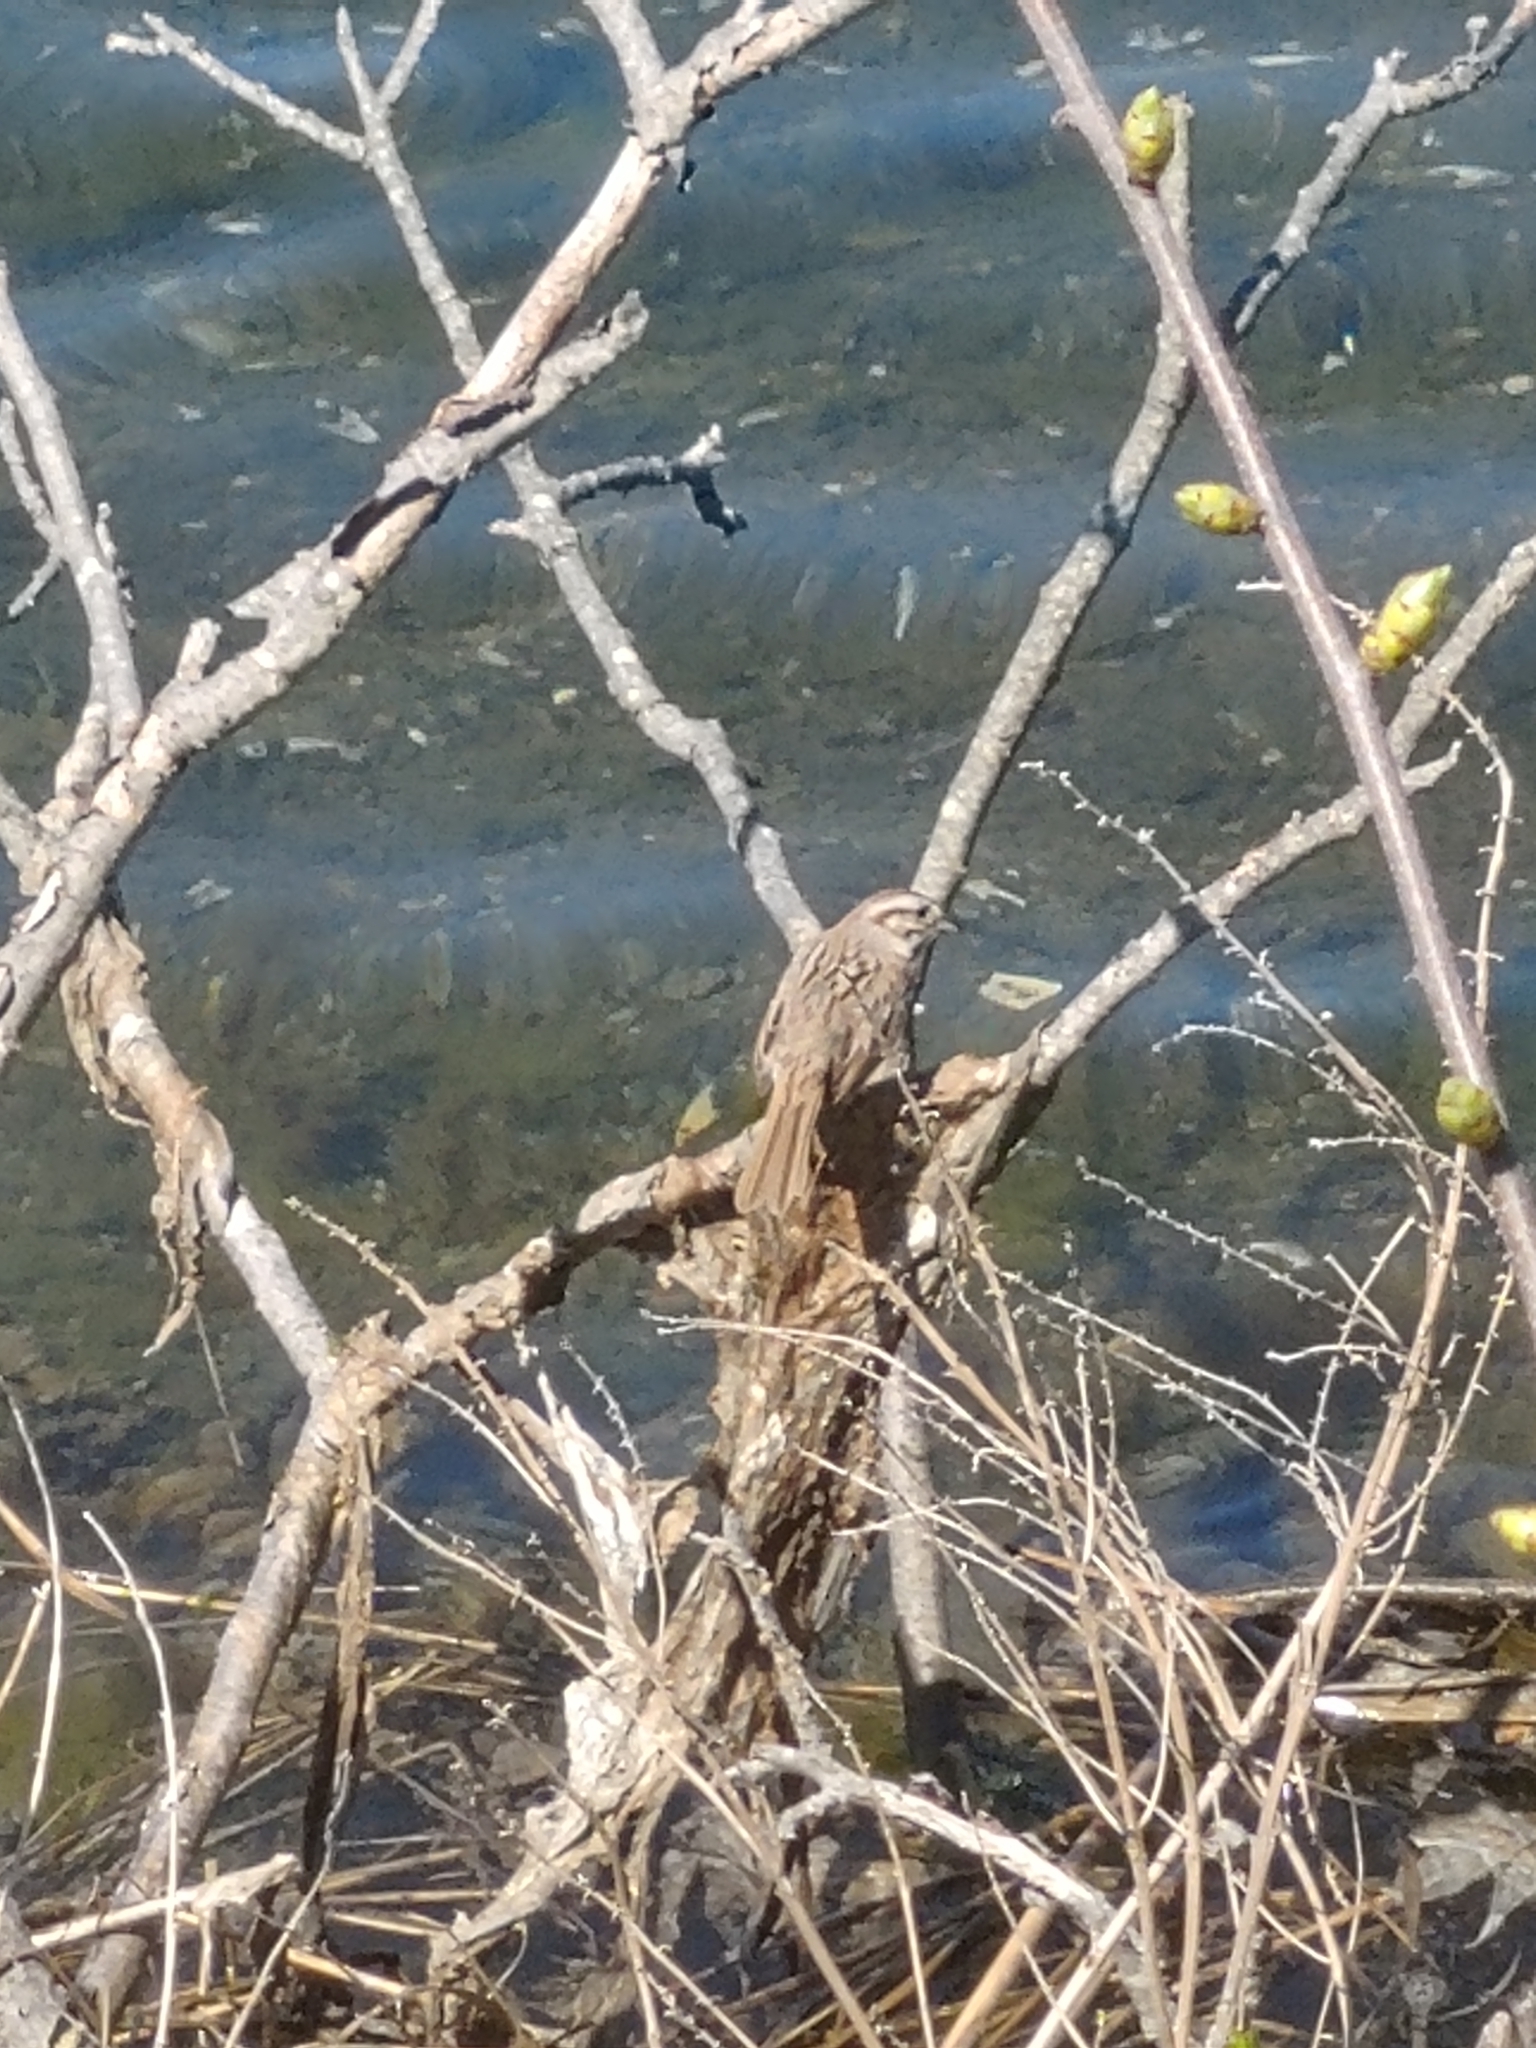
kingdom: Animalia
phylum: Chordata
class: Aves
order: Passeriformes
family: Passerellidae
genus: Melospiza
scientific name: Melospiza melodia
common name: Song sparrow
